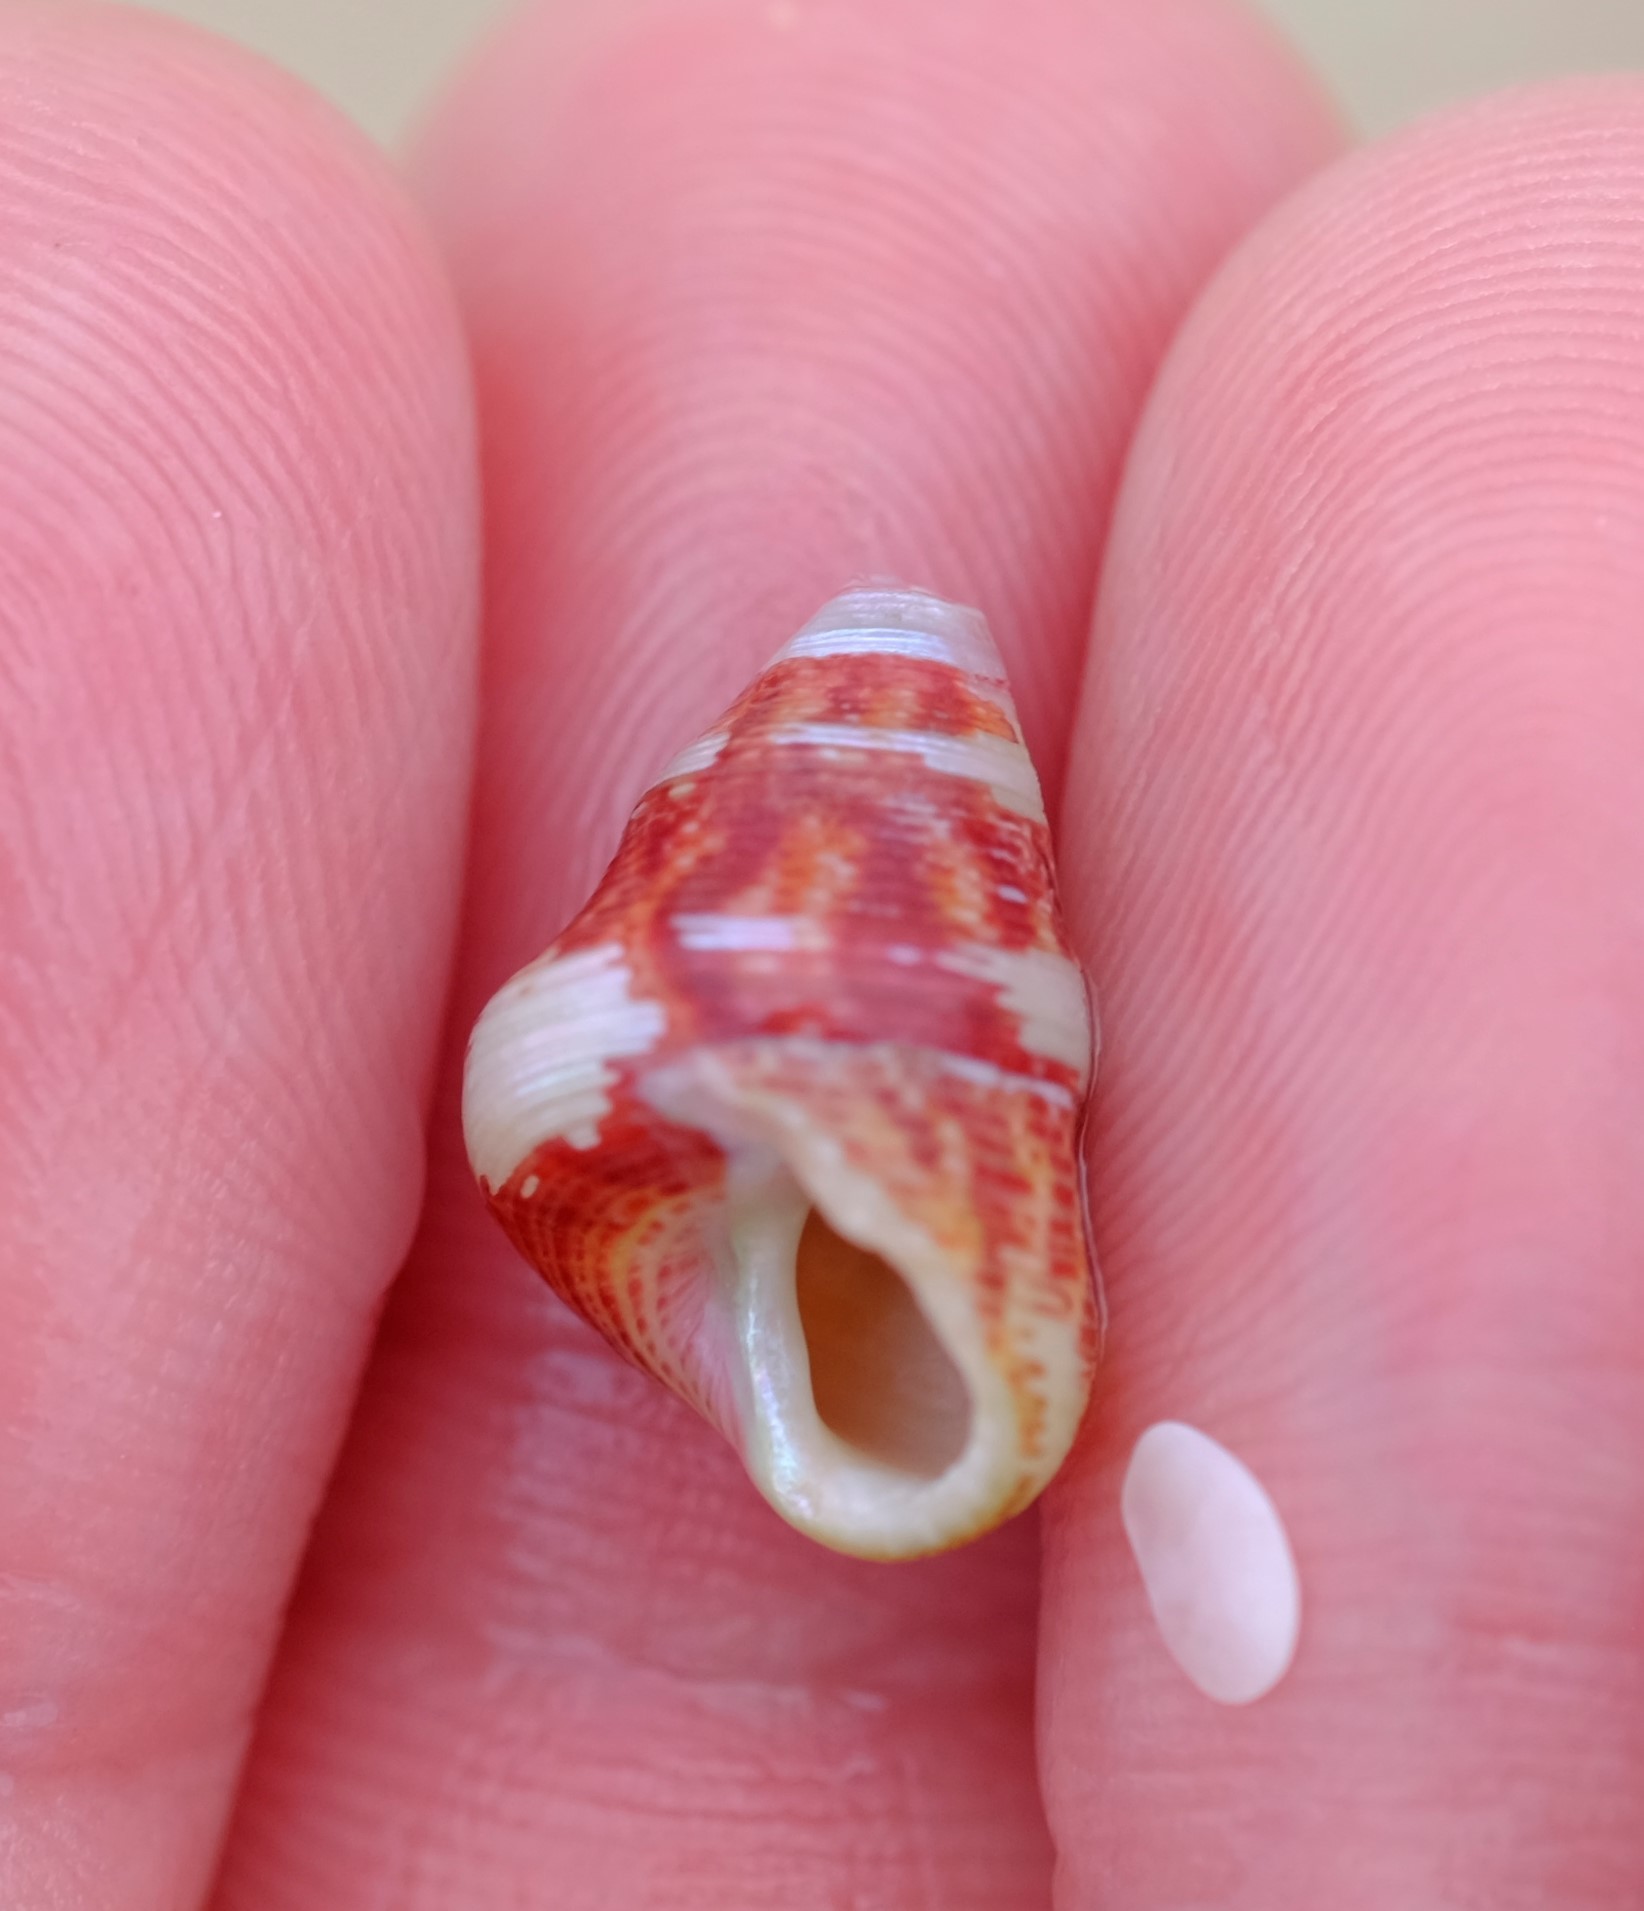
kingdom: Animalia
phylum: Mollusca
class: Gastropoda
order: Trochida
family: Trochidae
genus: Prothalotia
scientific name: Prothalotia pulcherrima
